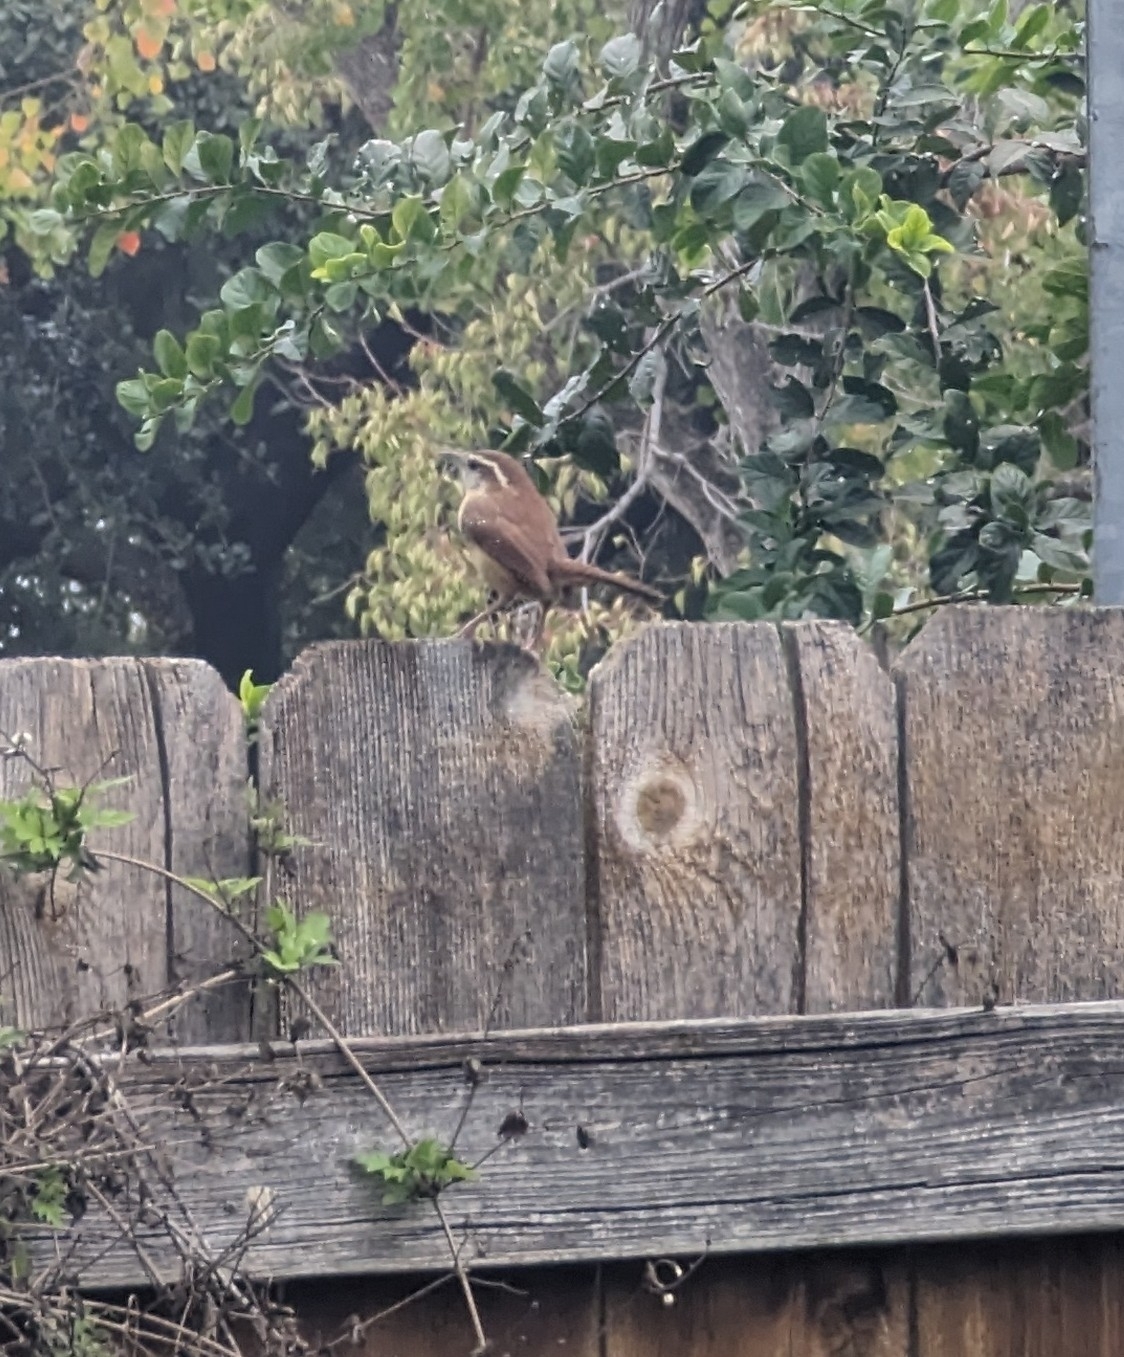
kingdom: Animalia
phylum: Chordata
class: Aves
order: Passeriformes
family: Troglodytidae
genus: Thryothorus
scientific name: Thryothorus ludovicianus
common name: Carolina wren
